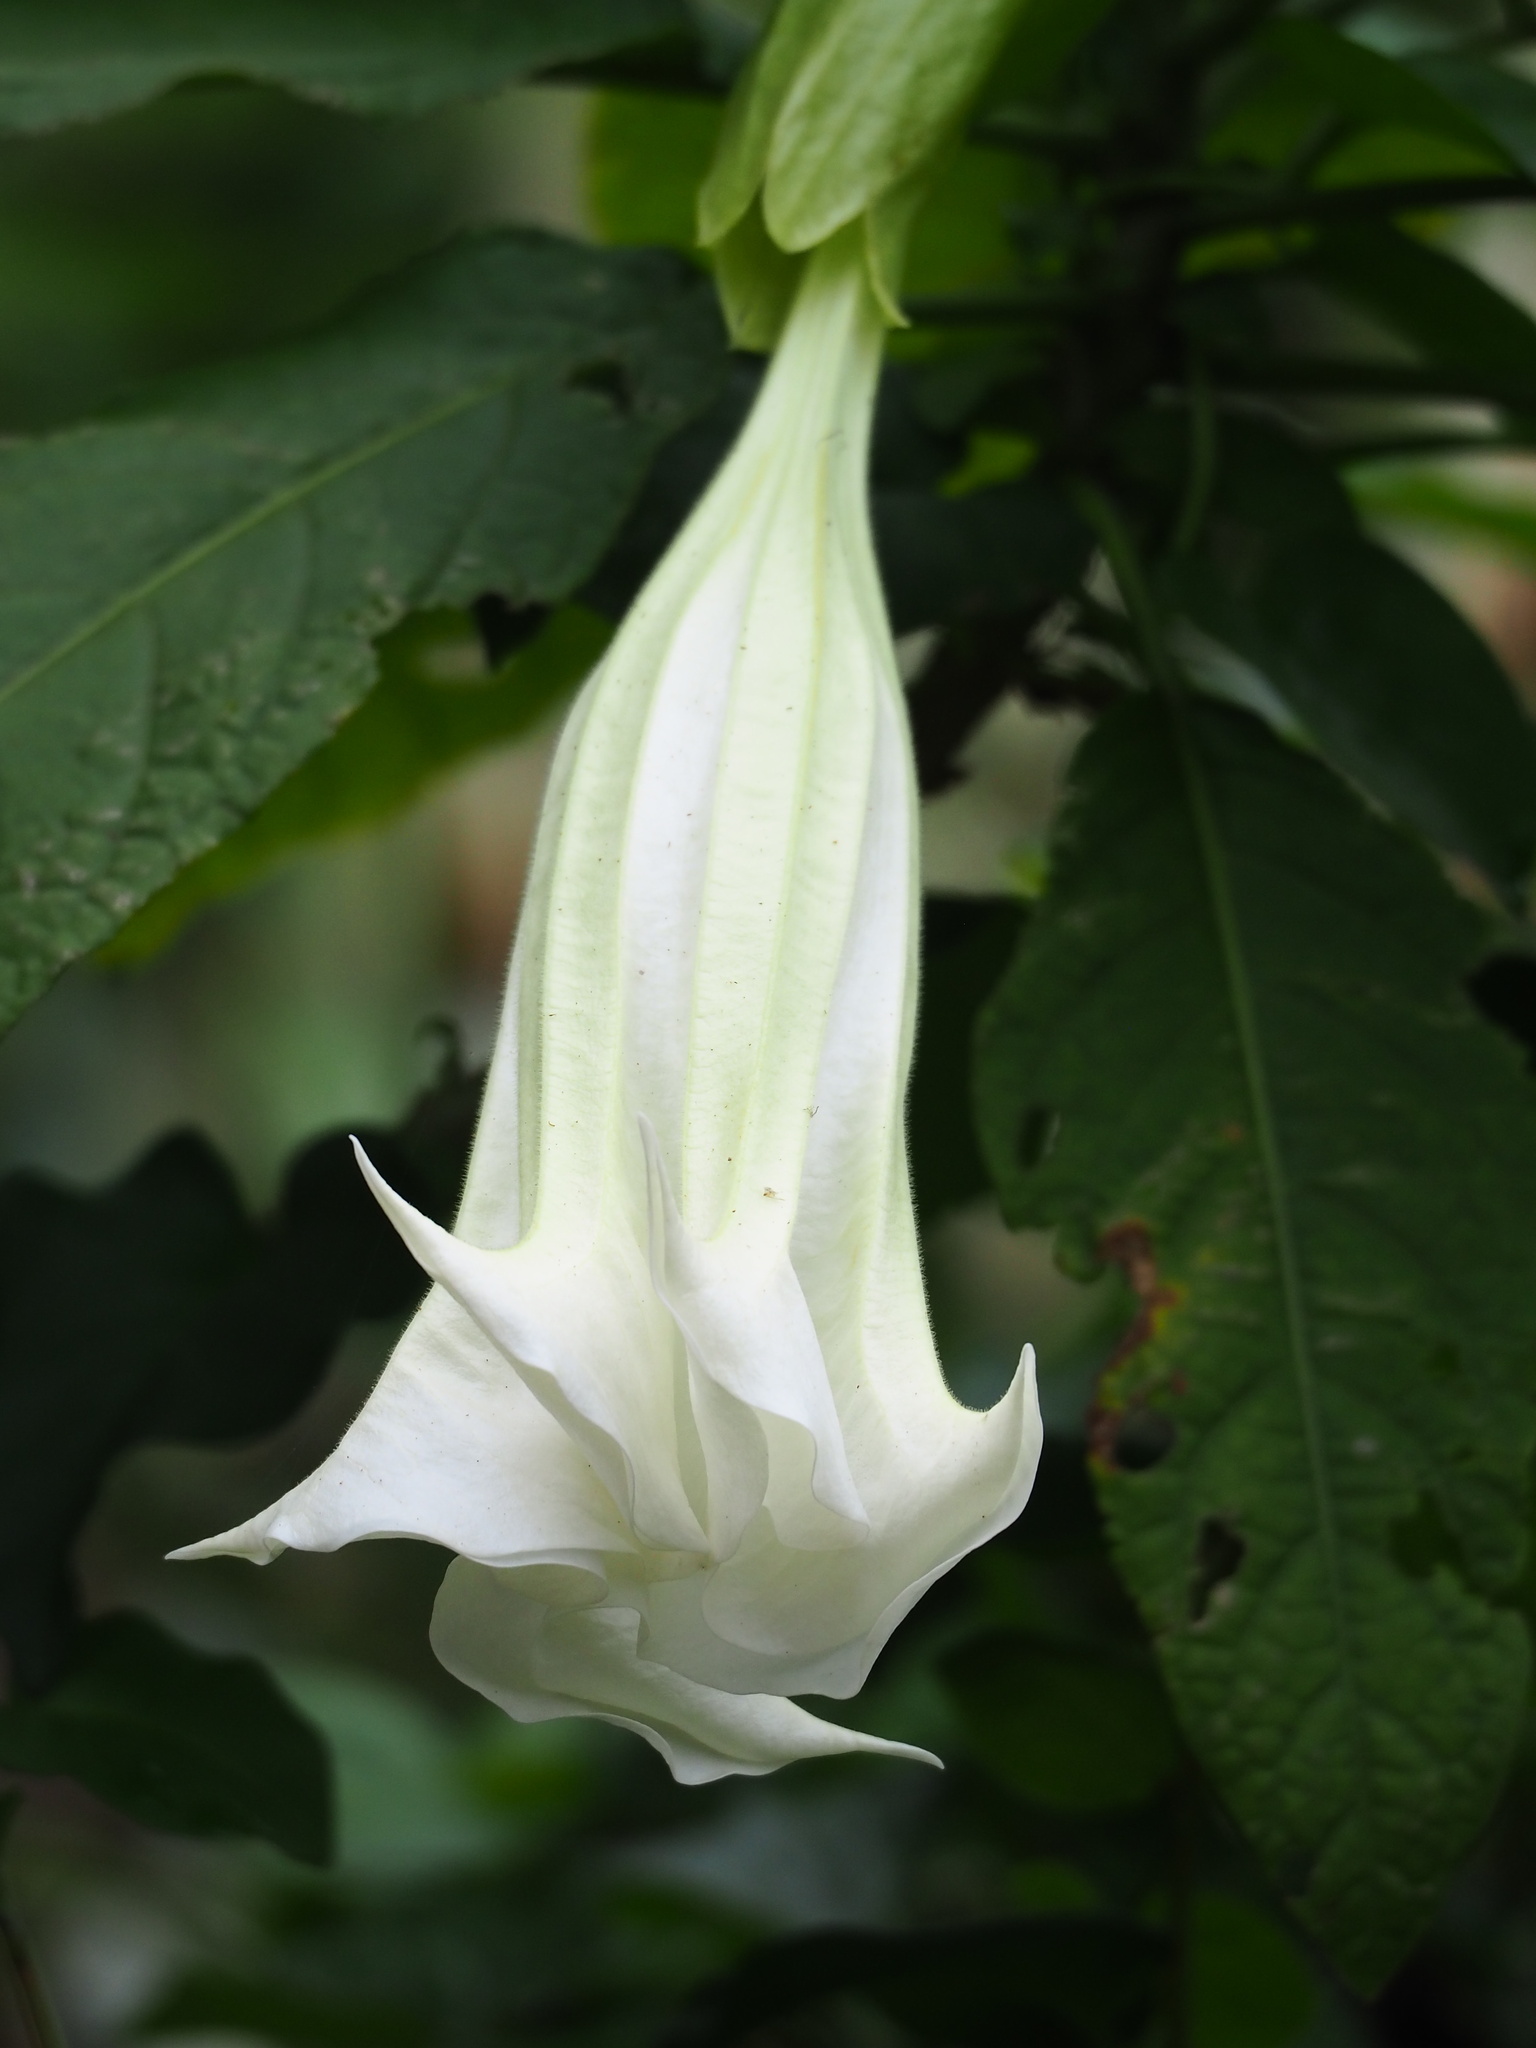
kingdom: Plantae
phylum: Tracheophyta
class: Magnoliopsida
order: Solanales
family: Solanaceae
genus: Brugmansia
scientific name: Brugmansia suaveolens
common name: Angel's tears
